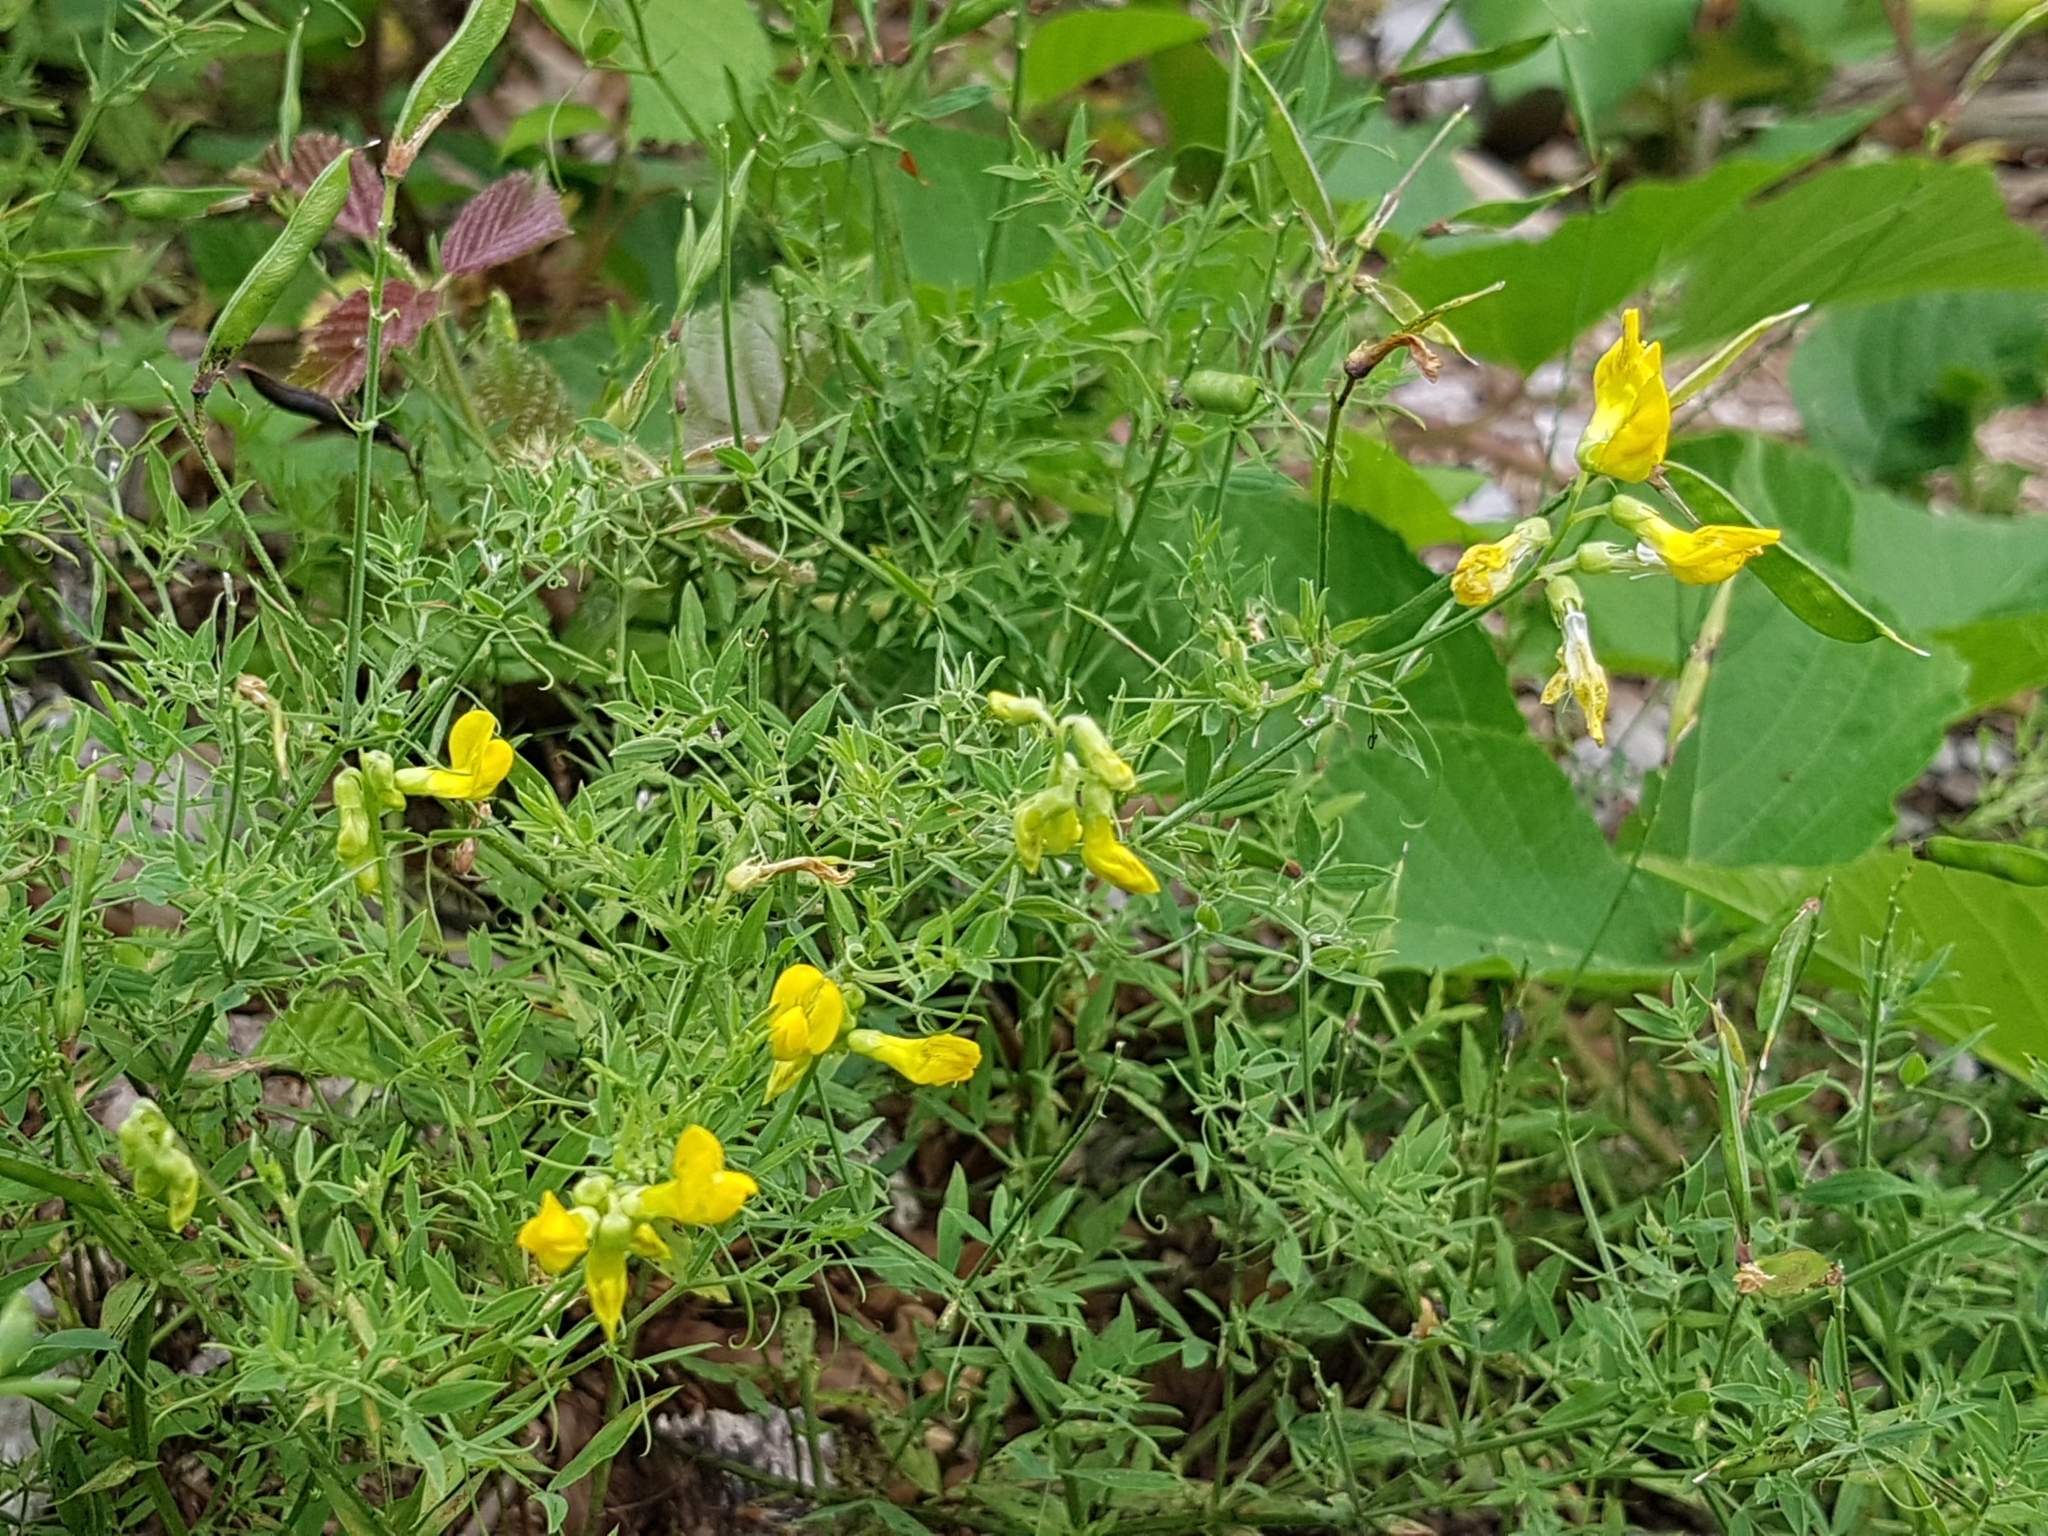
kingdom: Plantae
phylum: Tracheophyta
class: Magnoliopsida
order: Fabales
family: Fabaceae
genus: Lathyrus
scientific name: Lathyrus pratensis
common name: Meadow vetchling
